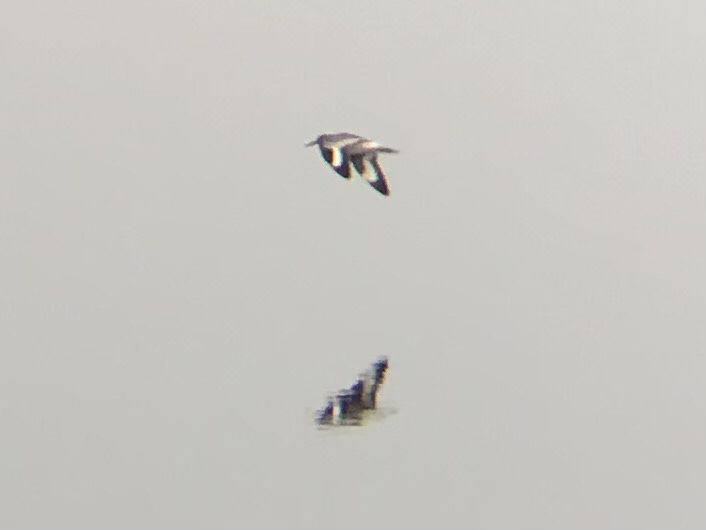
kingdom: Animalia
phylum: Chordata
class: Aves
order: Charadriiformes
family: Scolopacidae
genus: Tringa
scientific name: Tringa semipalmata
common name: Willet
